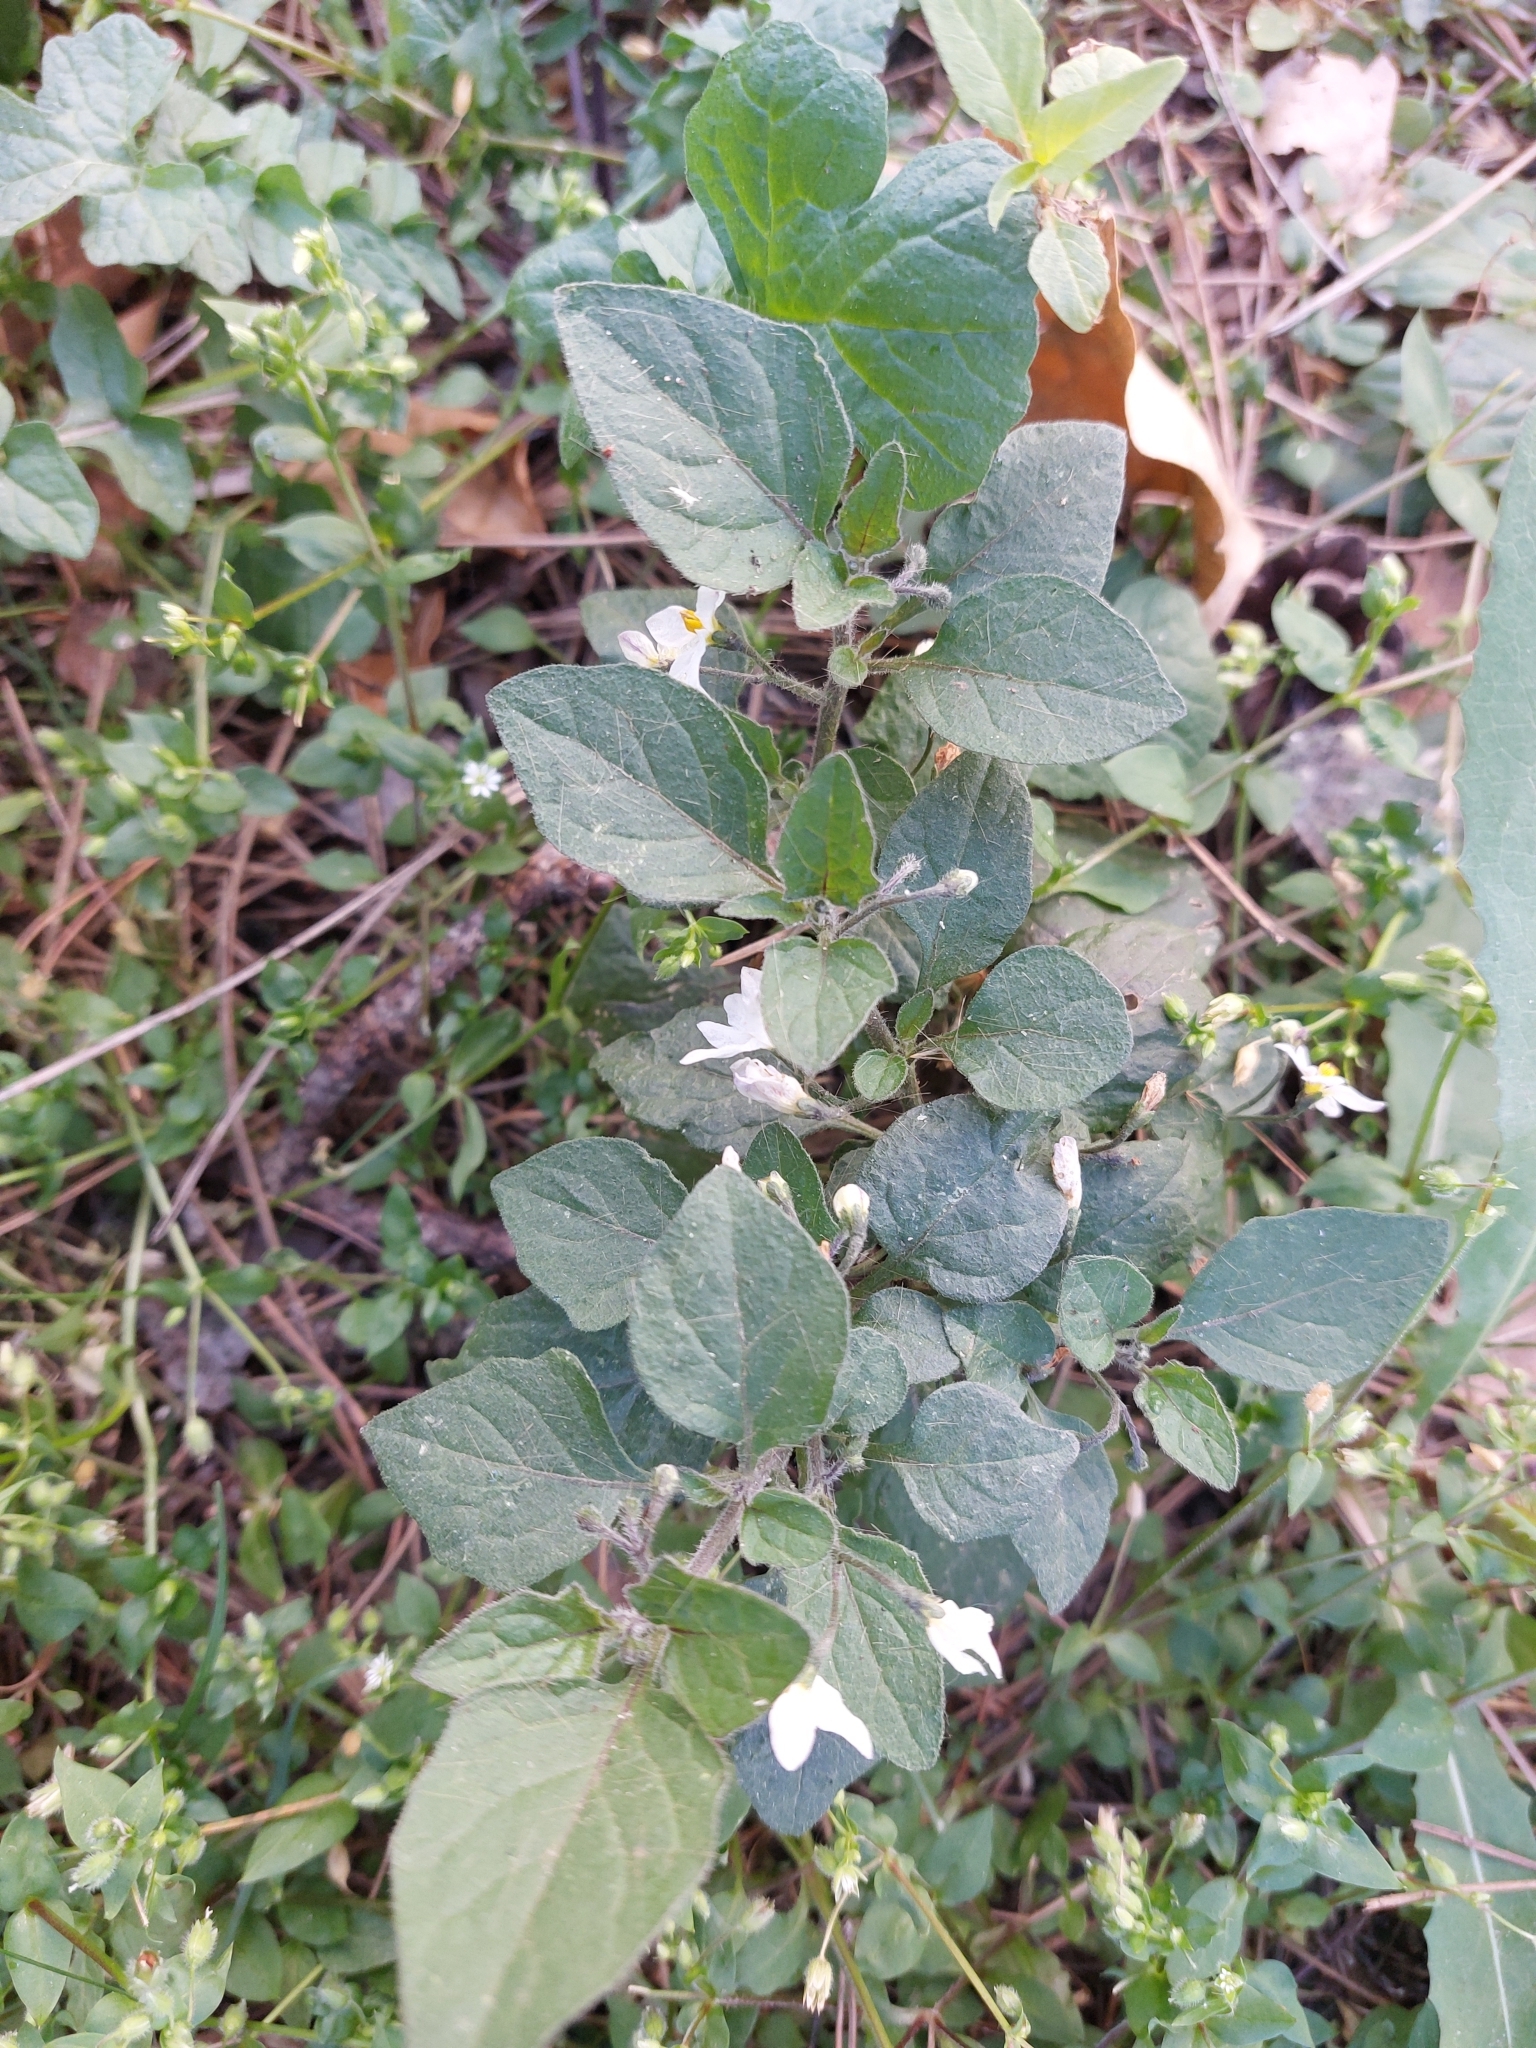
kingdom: Plantae
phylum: Tracheophyta
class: Magnoliopsida
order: Solanales
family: Solanaceae
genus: Solanum
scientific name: Solanum nigrum
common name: Black nightshade
